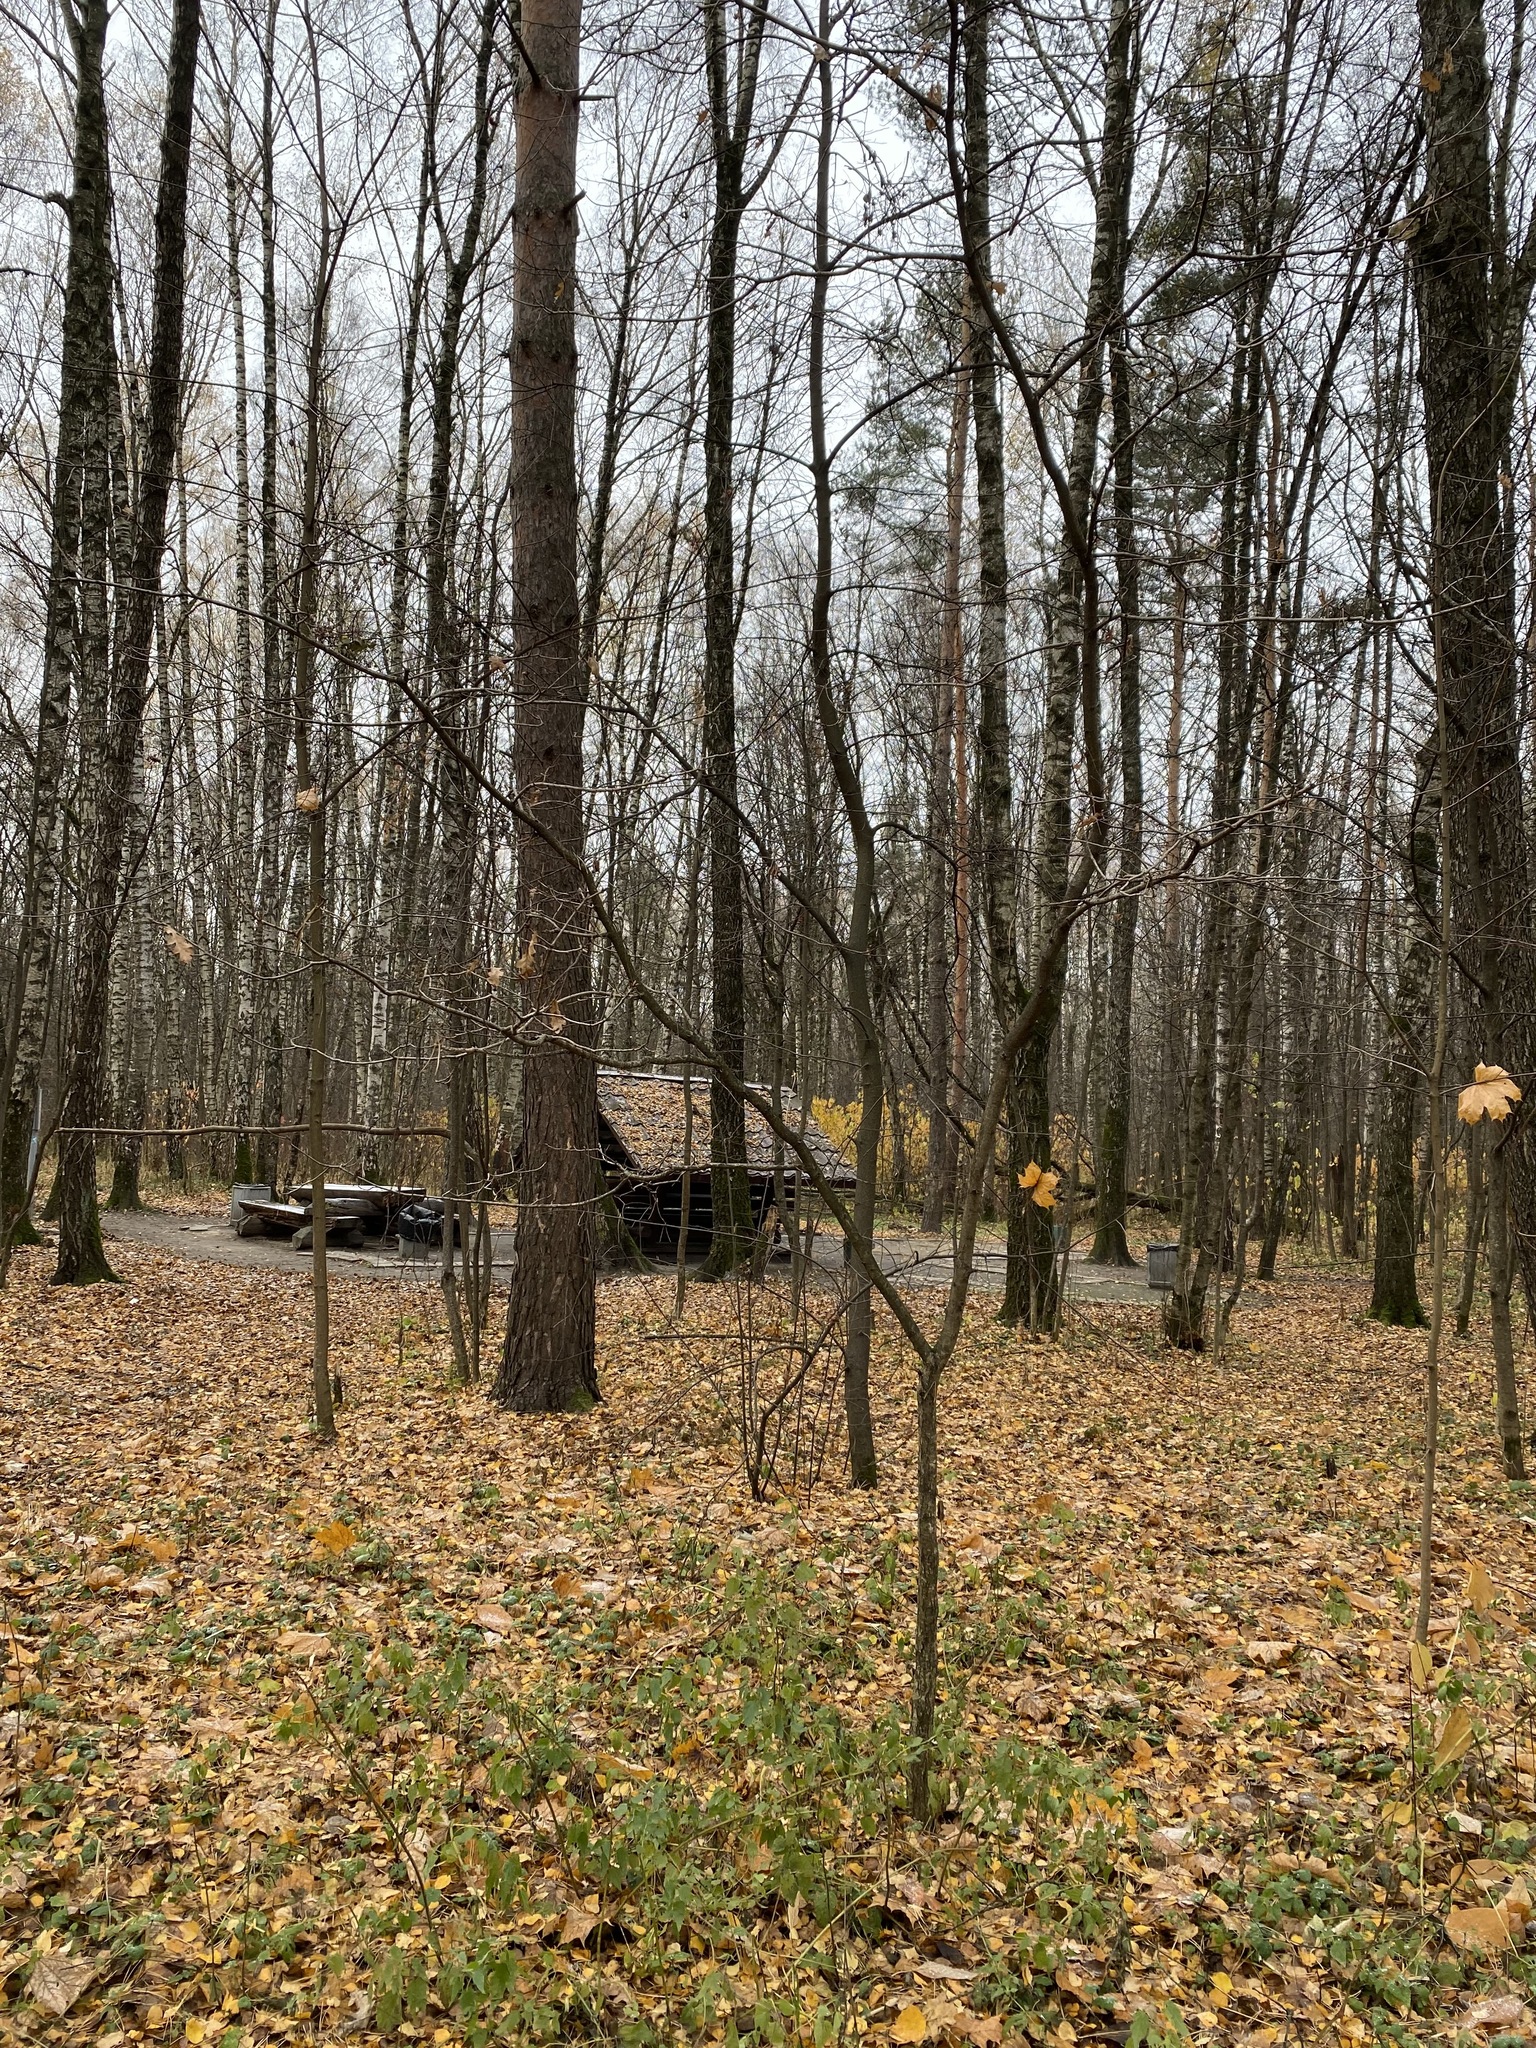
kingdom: Plantae
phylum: Tracheophyta
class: Magnoliopsida
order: Fagales
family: Fagaceae
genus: Quercus
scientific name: Quercus robur
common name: Pedunculate oak
